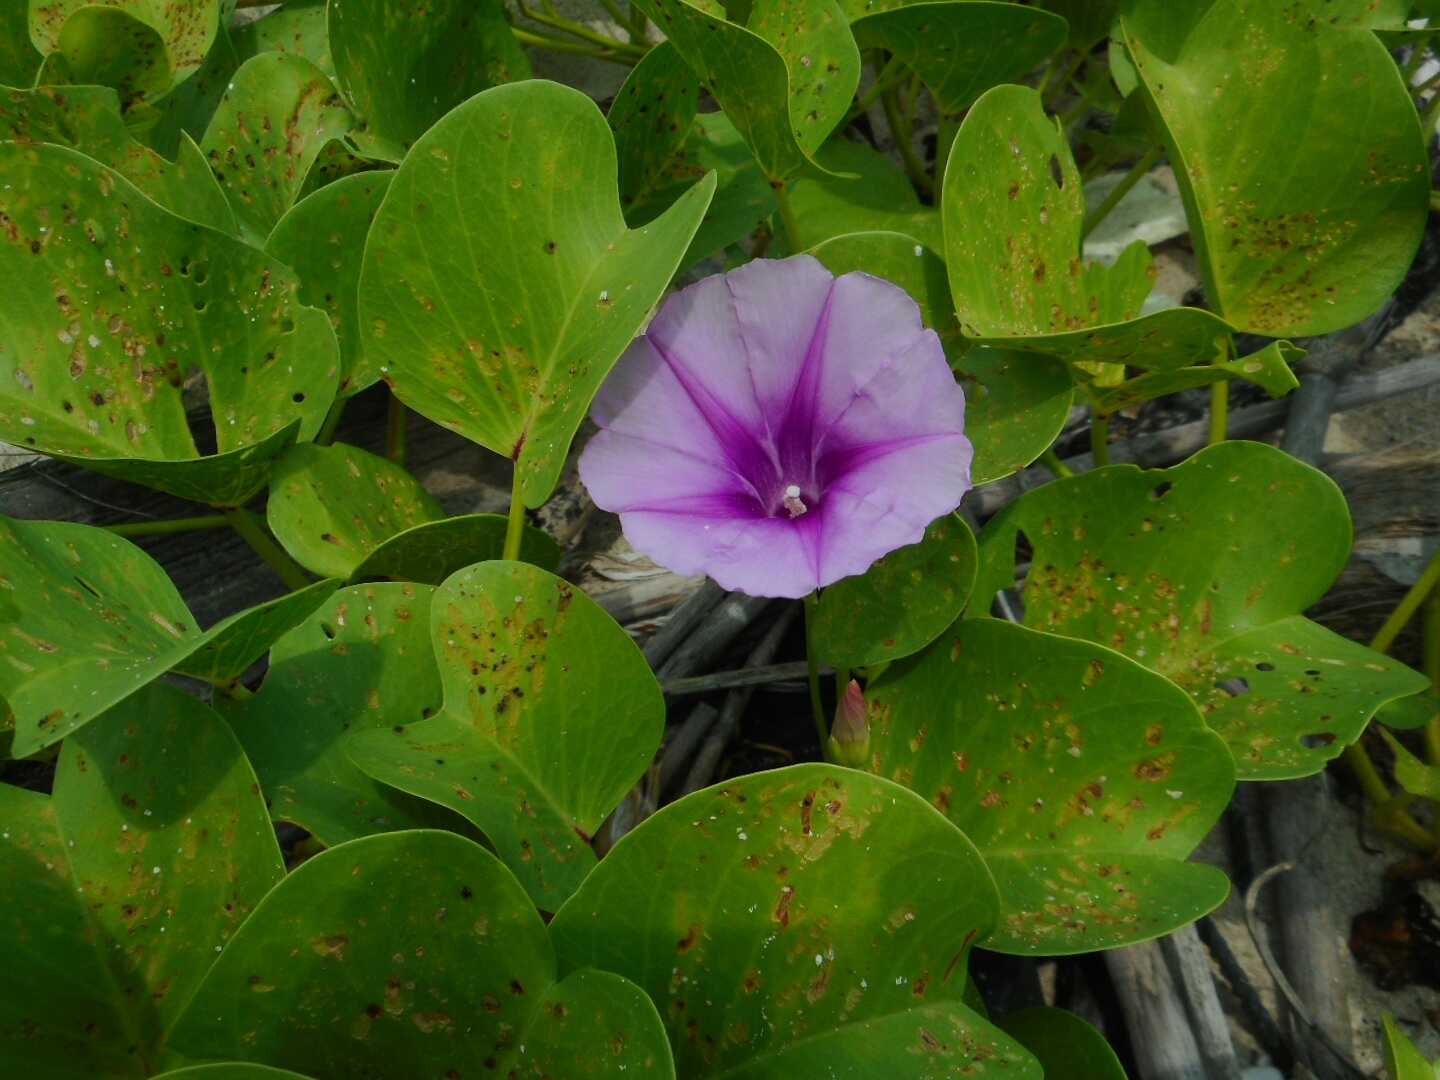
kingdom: Plantae
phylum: Tracheophyta
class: Magnoliopsida
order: Solanales
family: Convolvulaceae
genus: Ipomoea
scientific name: Ipomoea pes-caprae
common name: Beach morning glory
